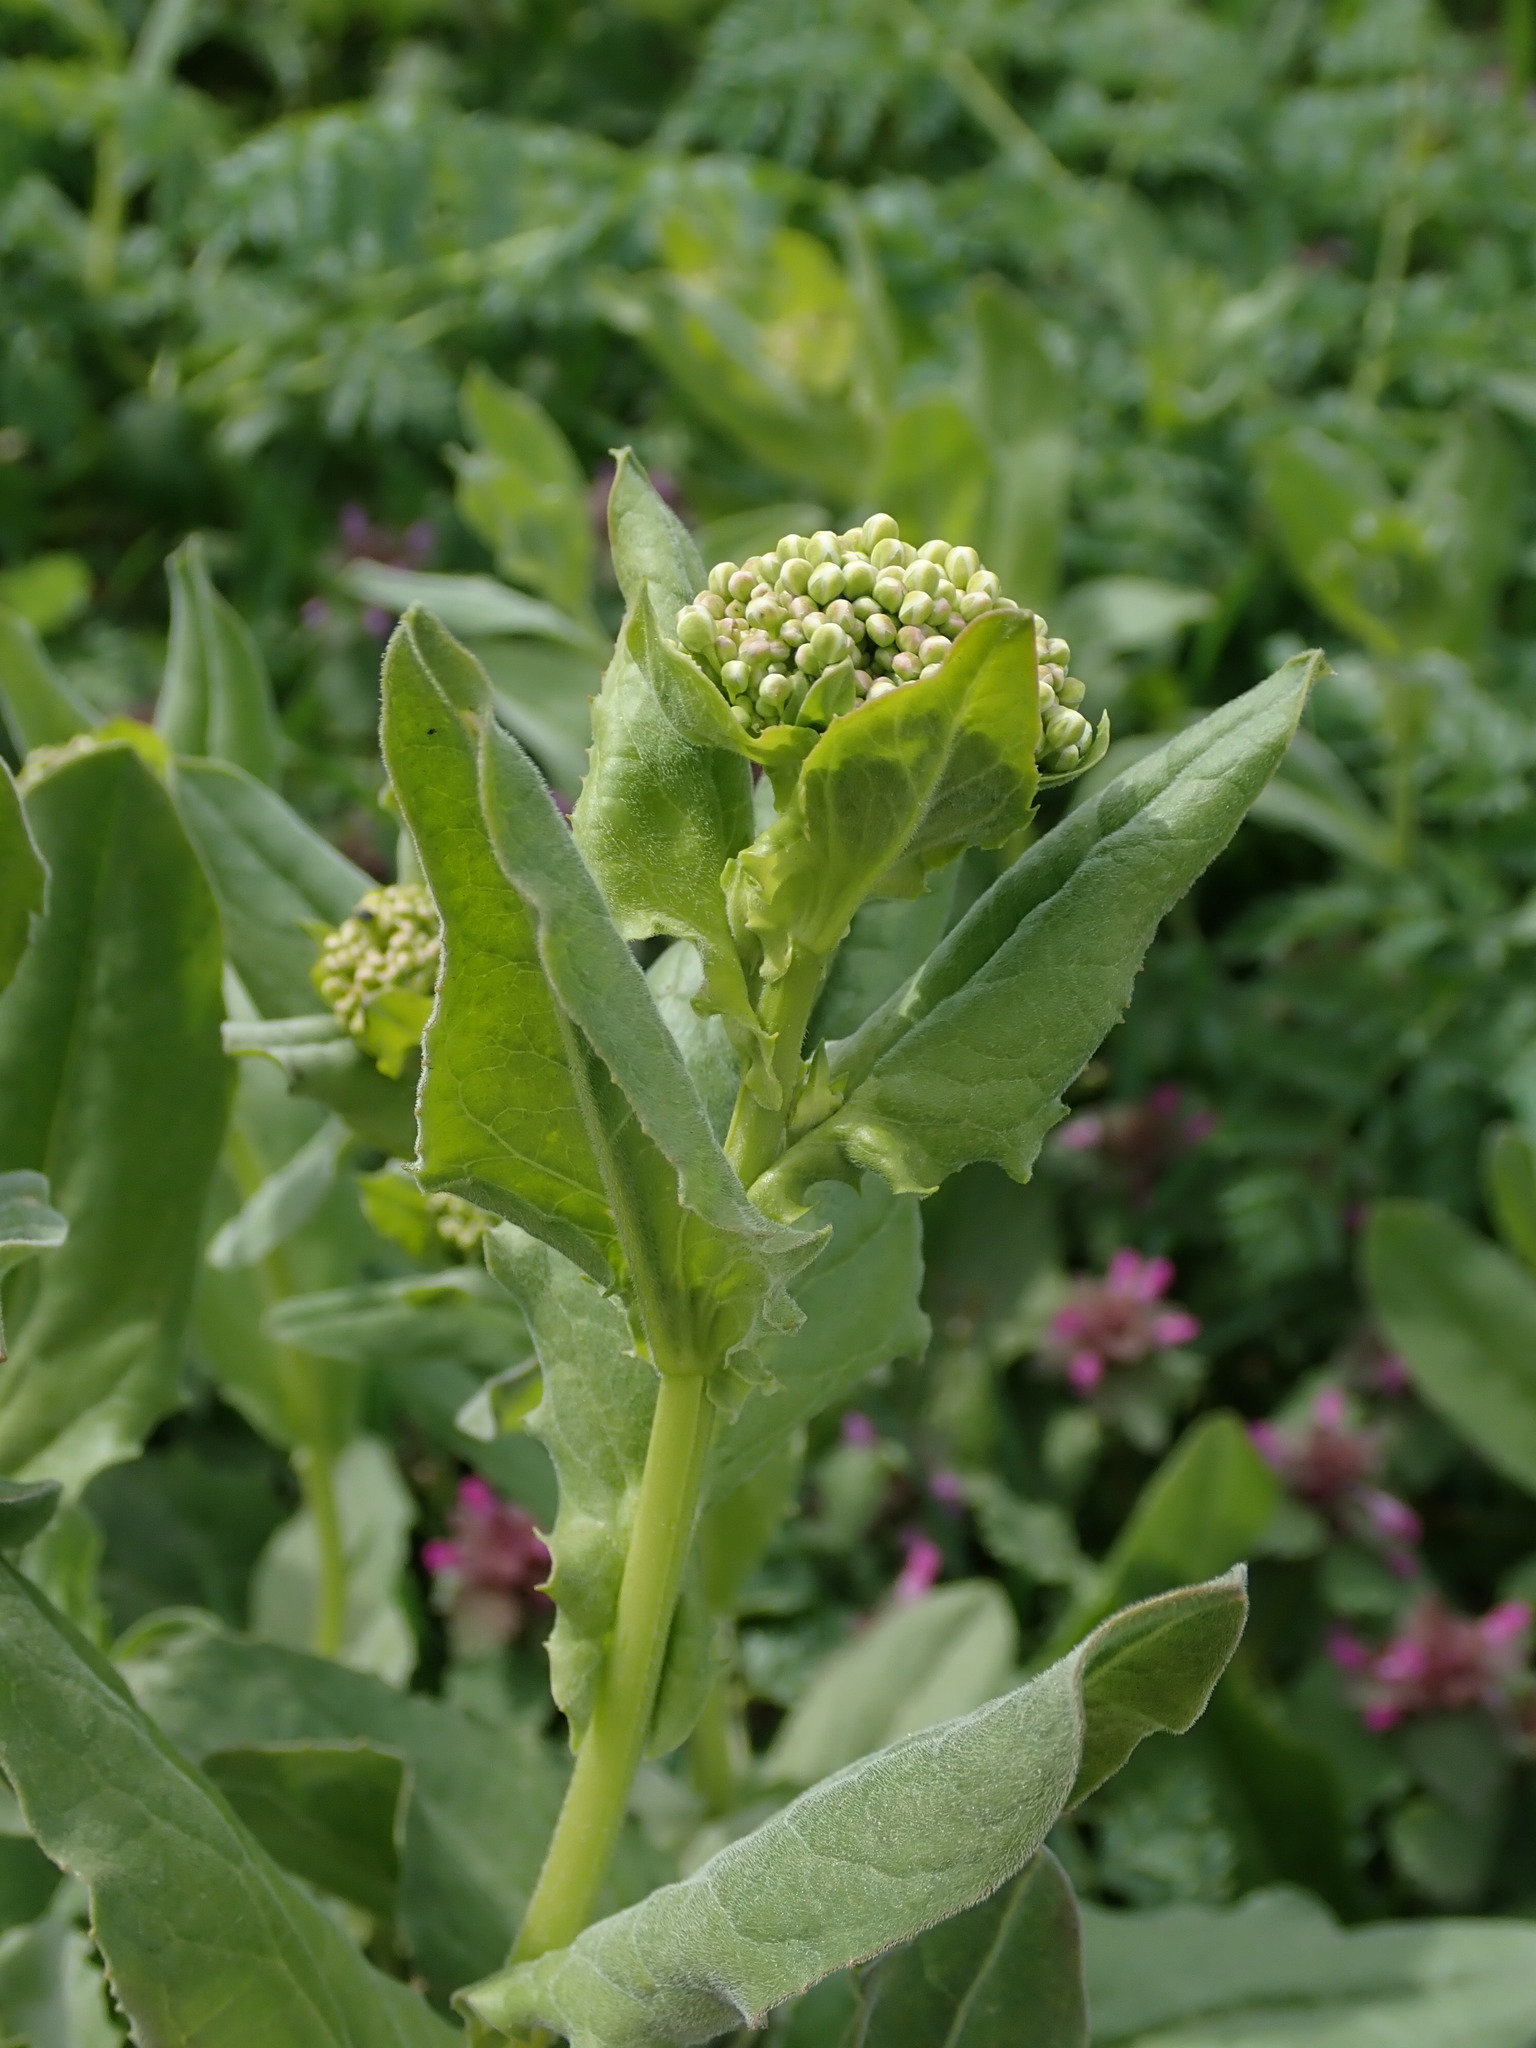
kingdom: Plantae
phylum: Tracheophyta
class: Magnoliopsida
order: Brassicales
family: Brassicaceae
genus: Lepidium
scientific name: Lepidium draba
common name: Hoary cress
